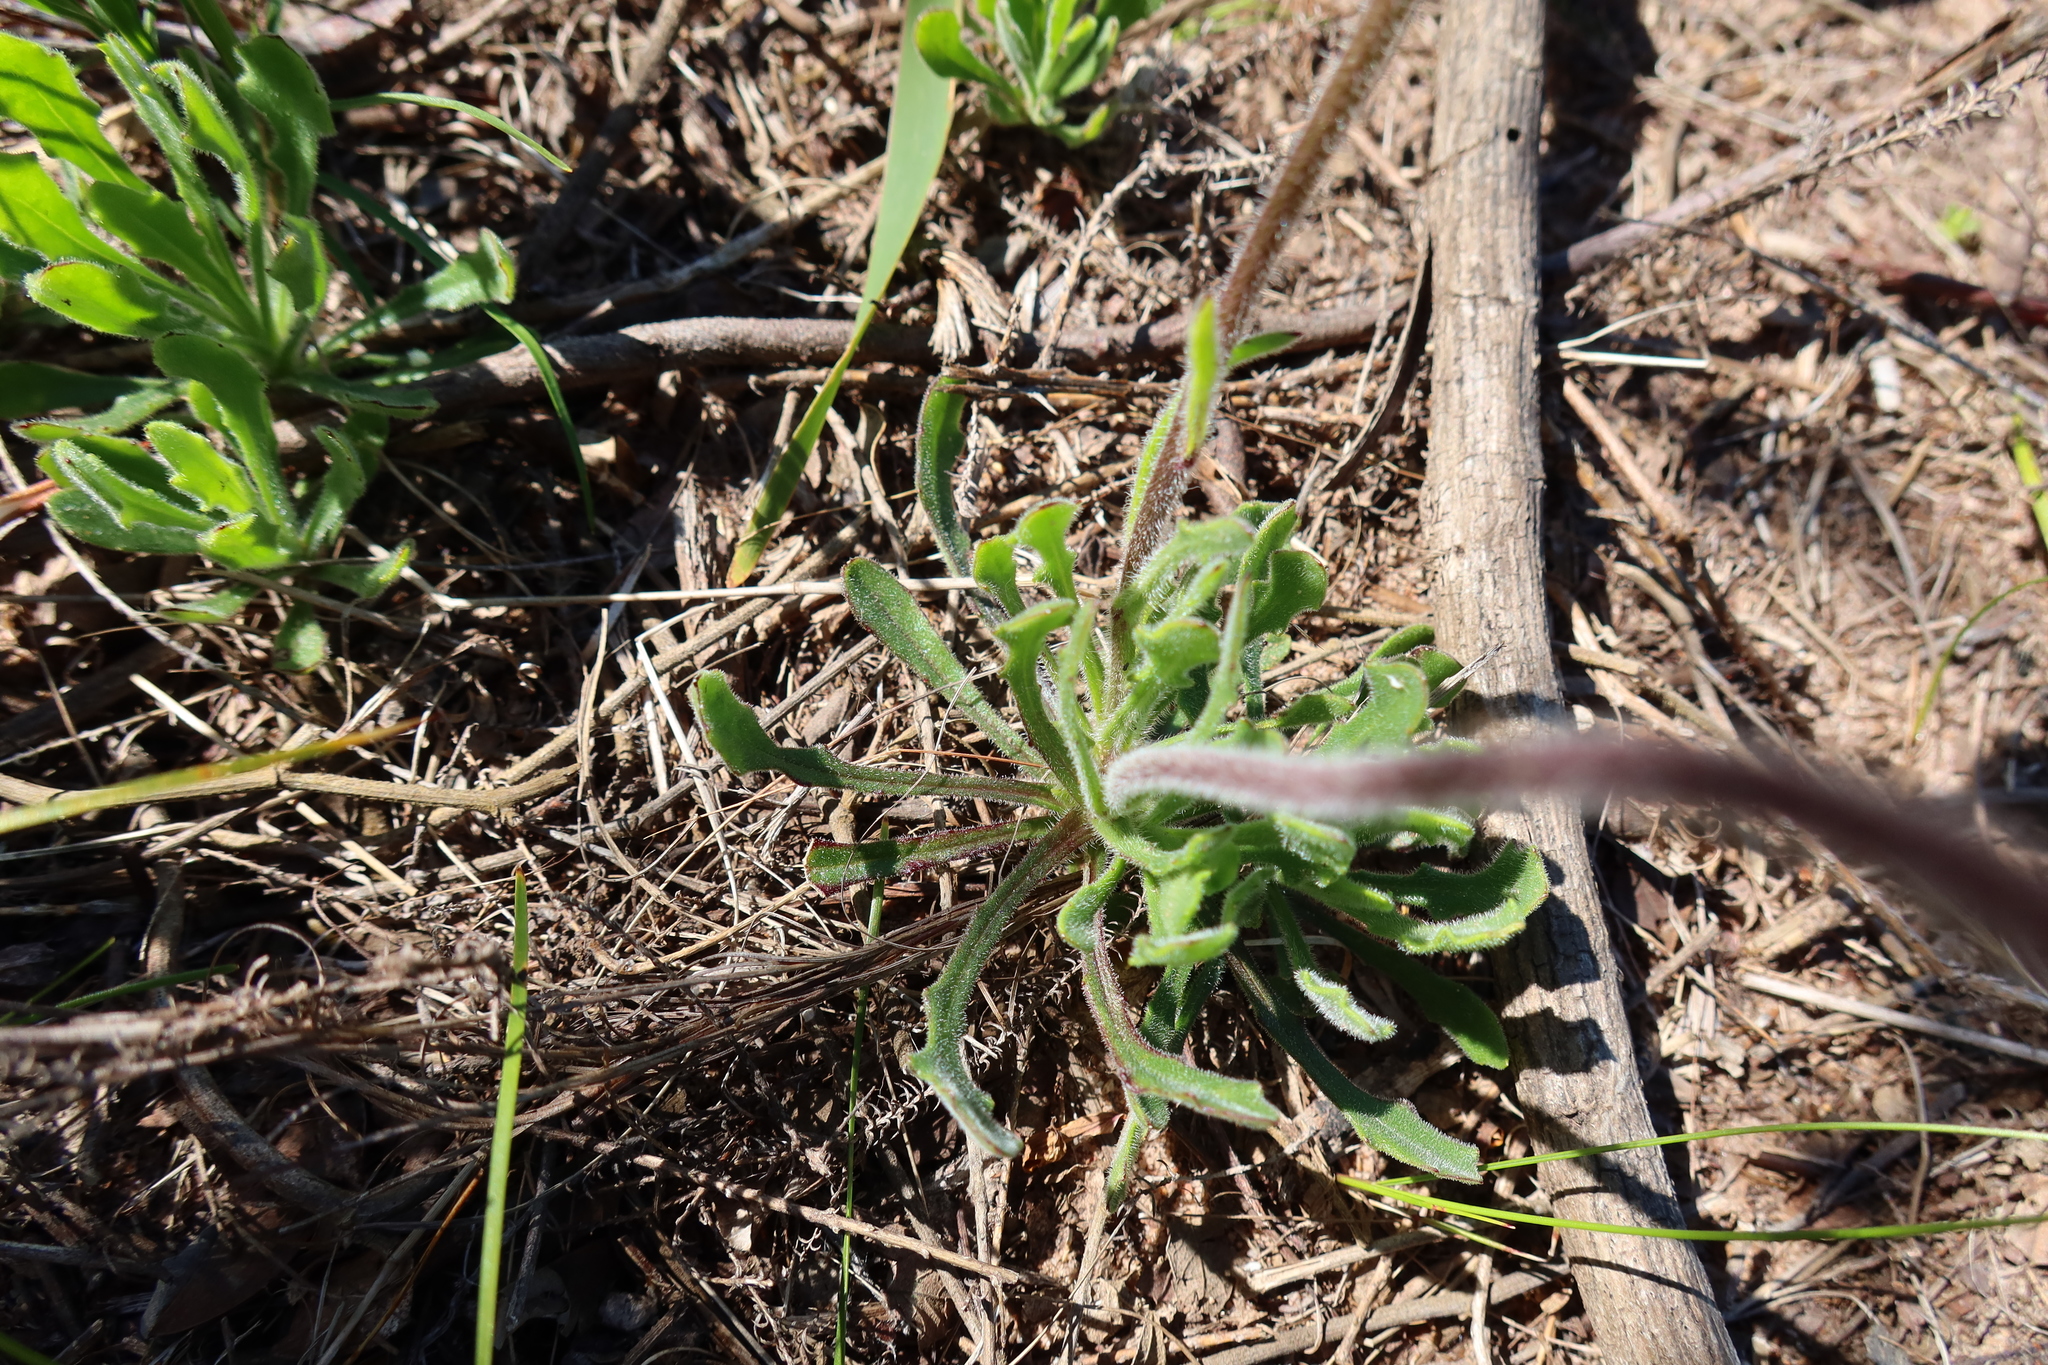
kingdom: Plantae
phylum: Tracheophyta
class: Magnoliopsida
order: Asterales
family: Asteraceae
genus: Dimorphotheca
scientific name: Dimorphotheca nudicaulis
